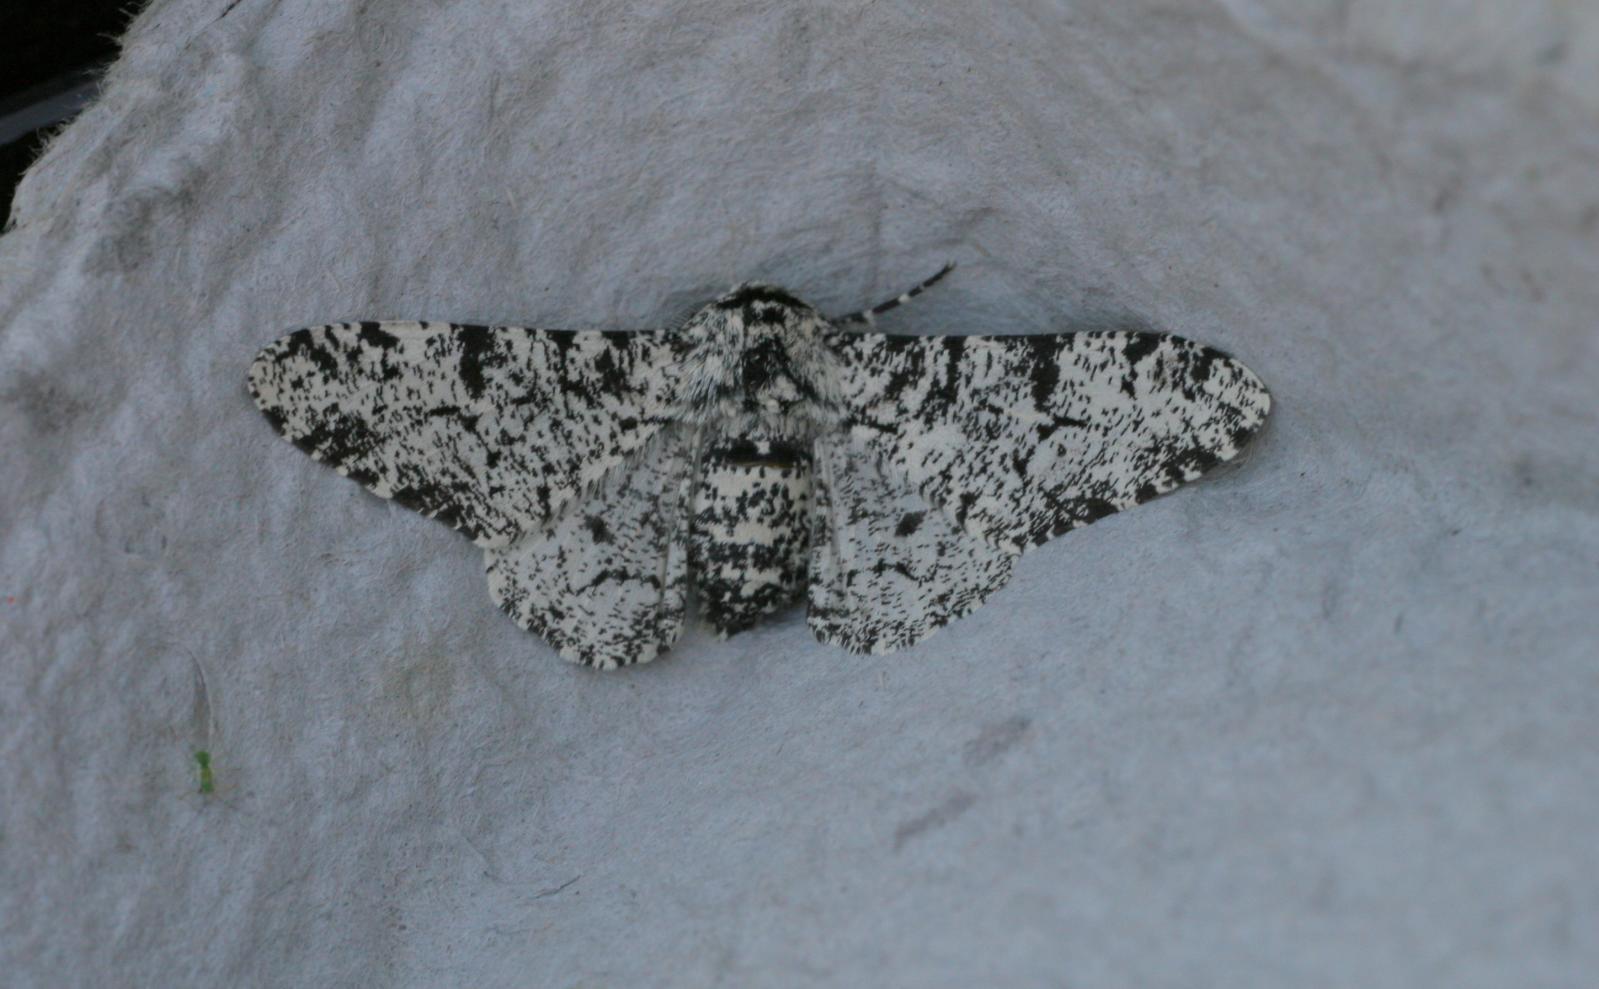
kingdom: Animalia
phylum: Arthropoda
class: Insecta
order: Lepidoptera
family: Geometridae
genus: Biston
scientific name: Biston betularia
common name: Peppered moth
